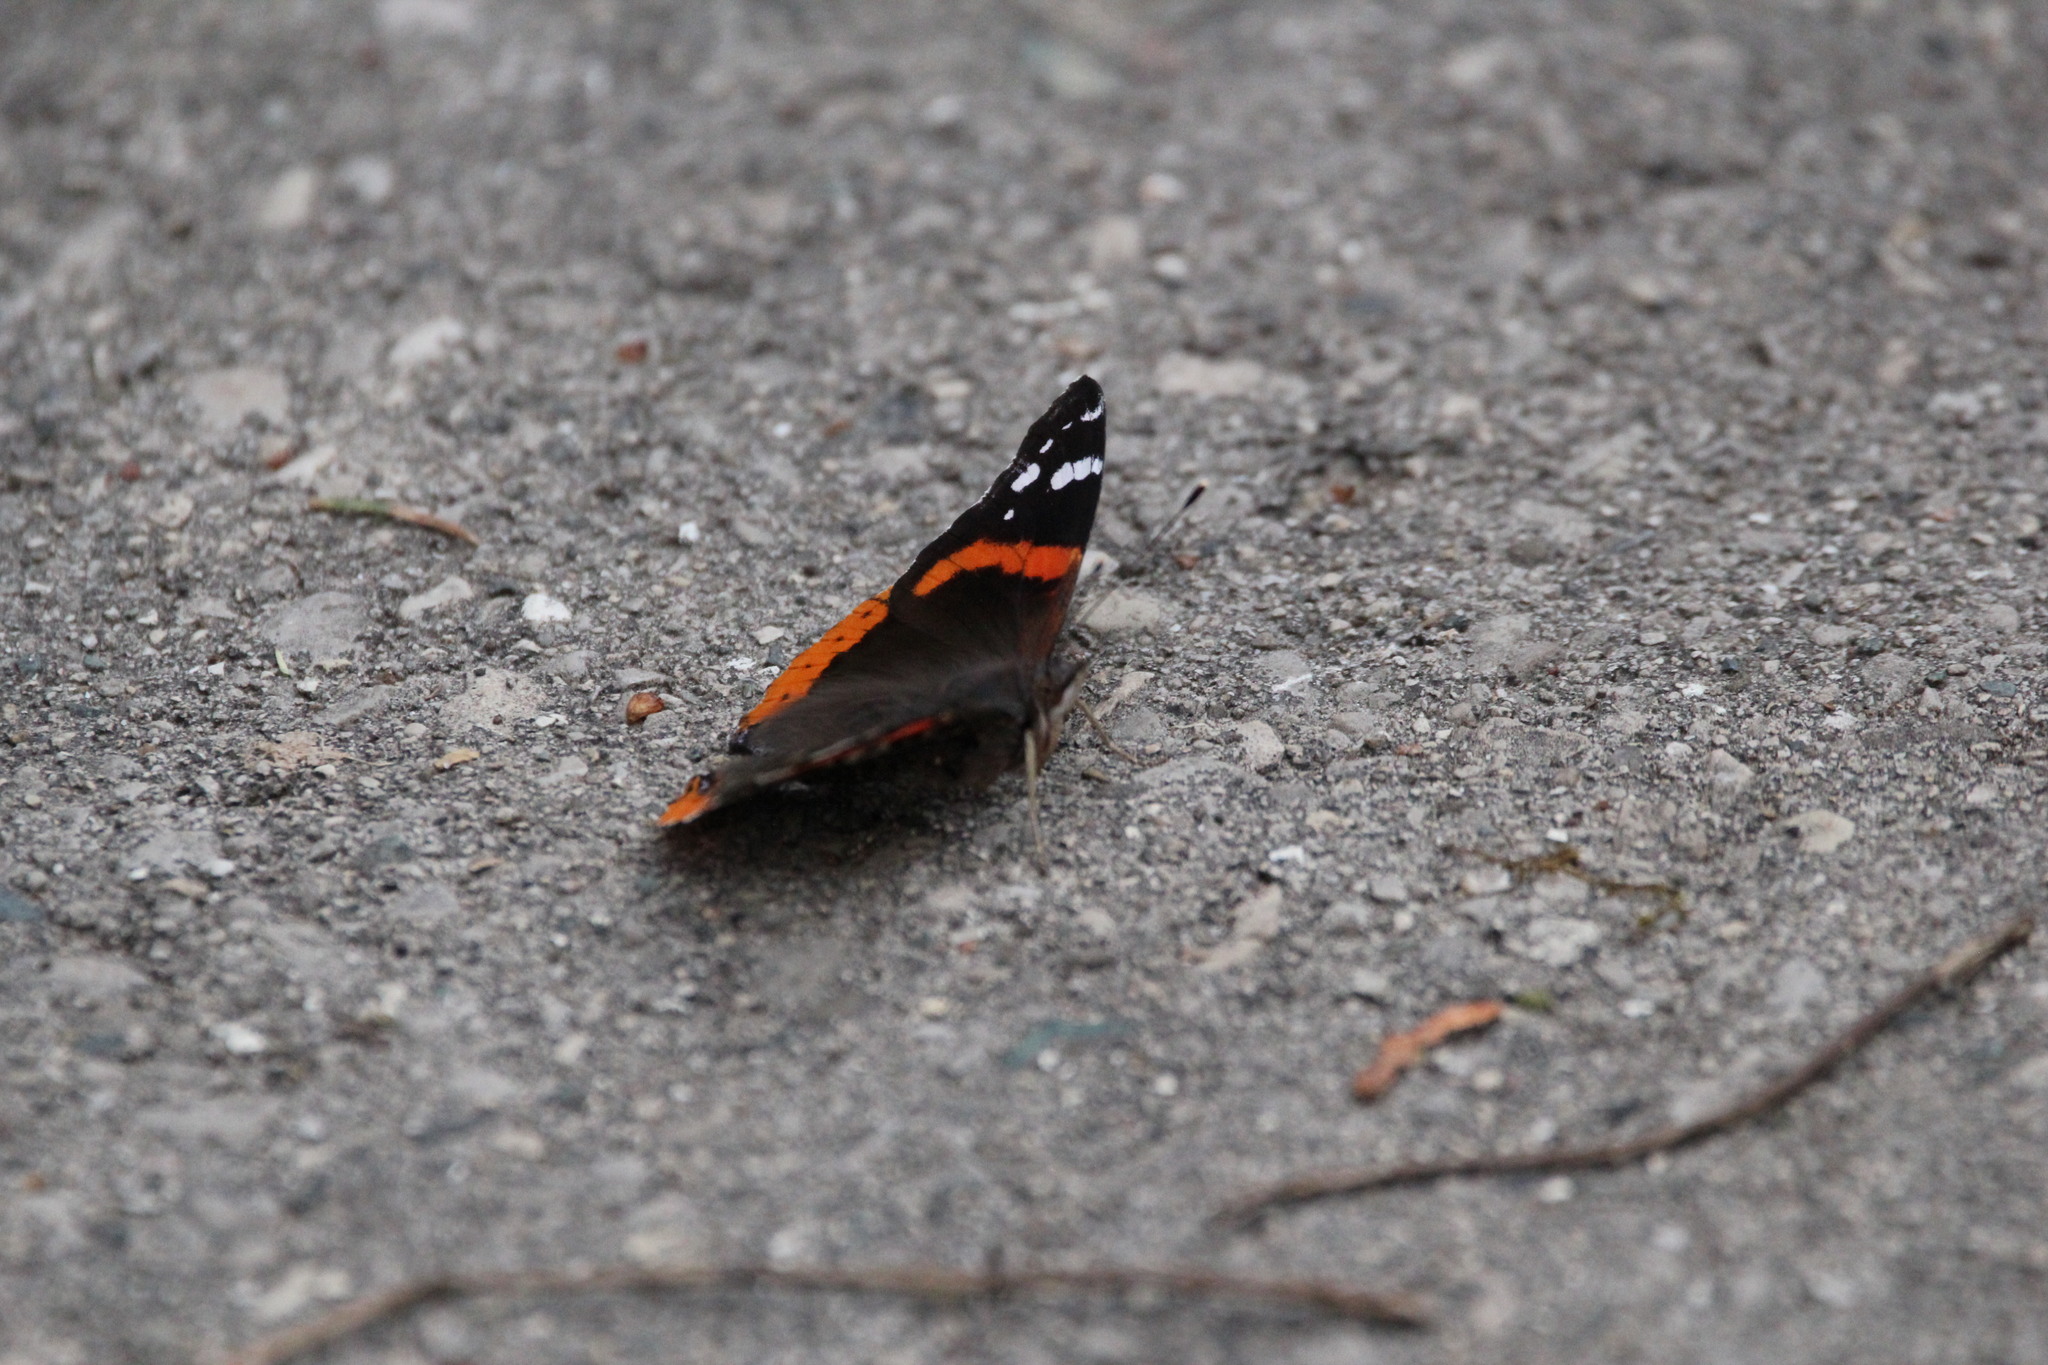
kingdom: Animalia
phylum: Arthropoda
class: Insecta
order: Lepidoptera
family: Nymphalidae
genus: Vanessa
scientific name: Vanessa atalanta
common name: Red admiral
